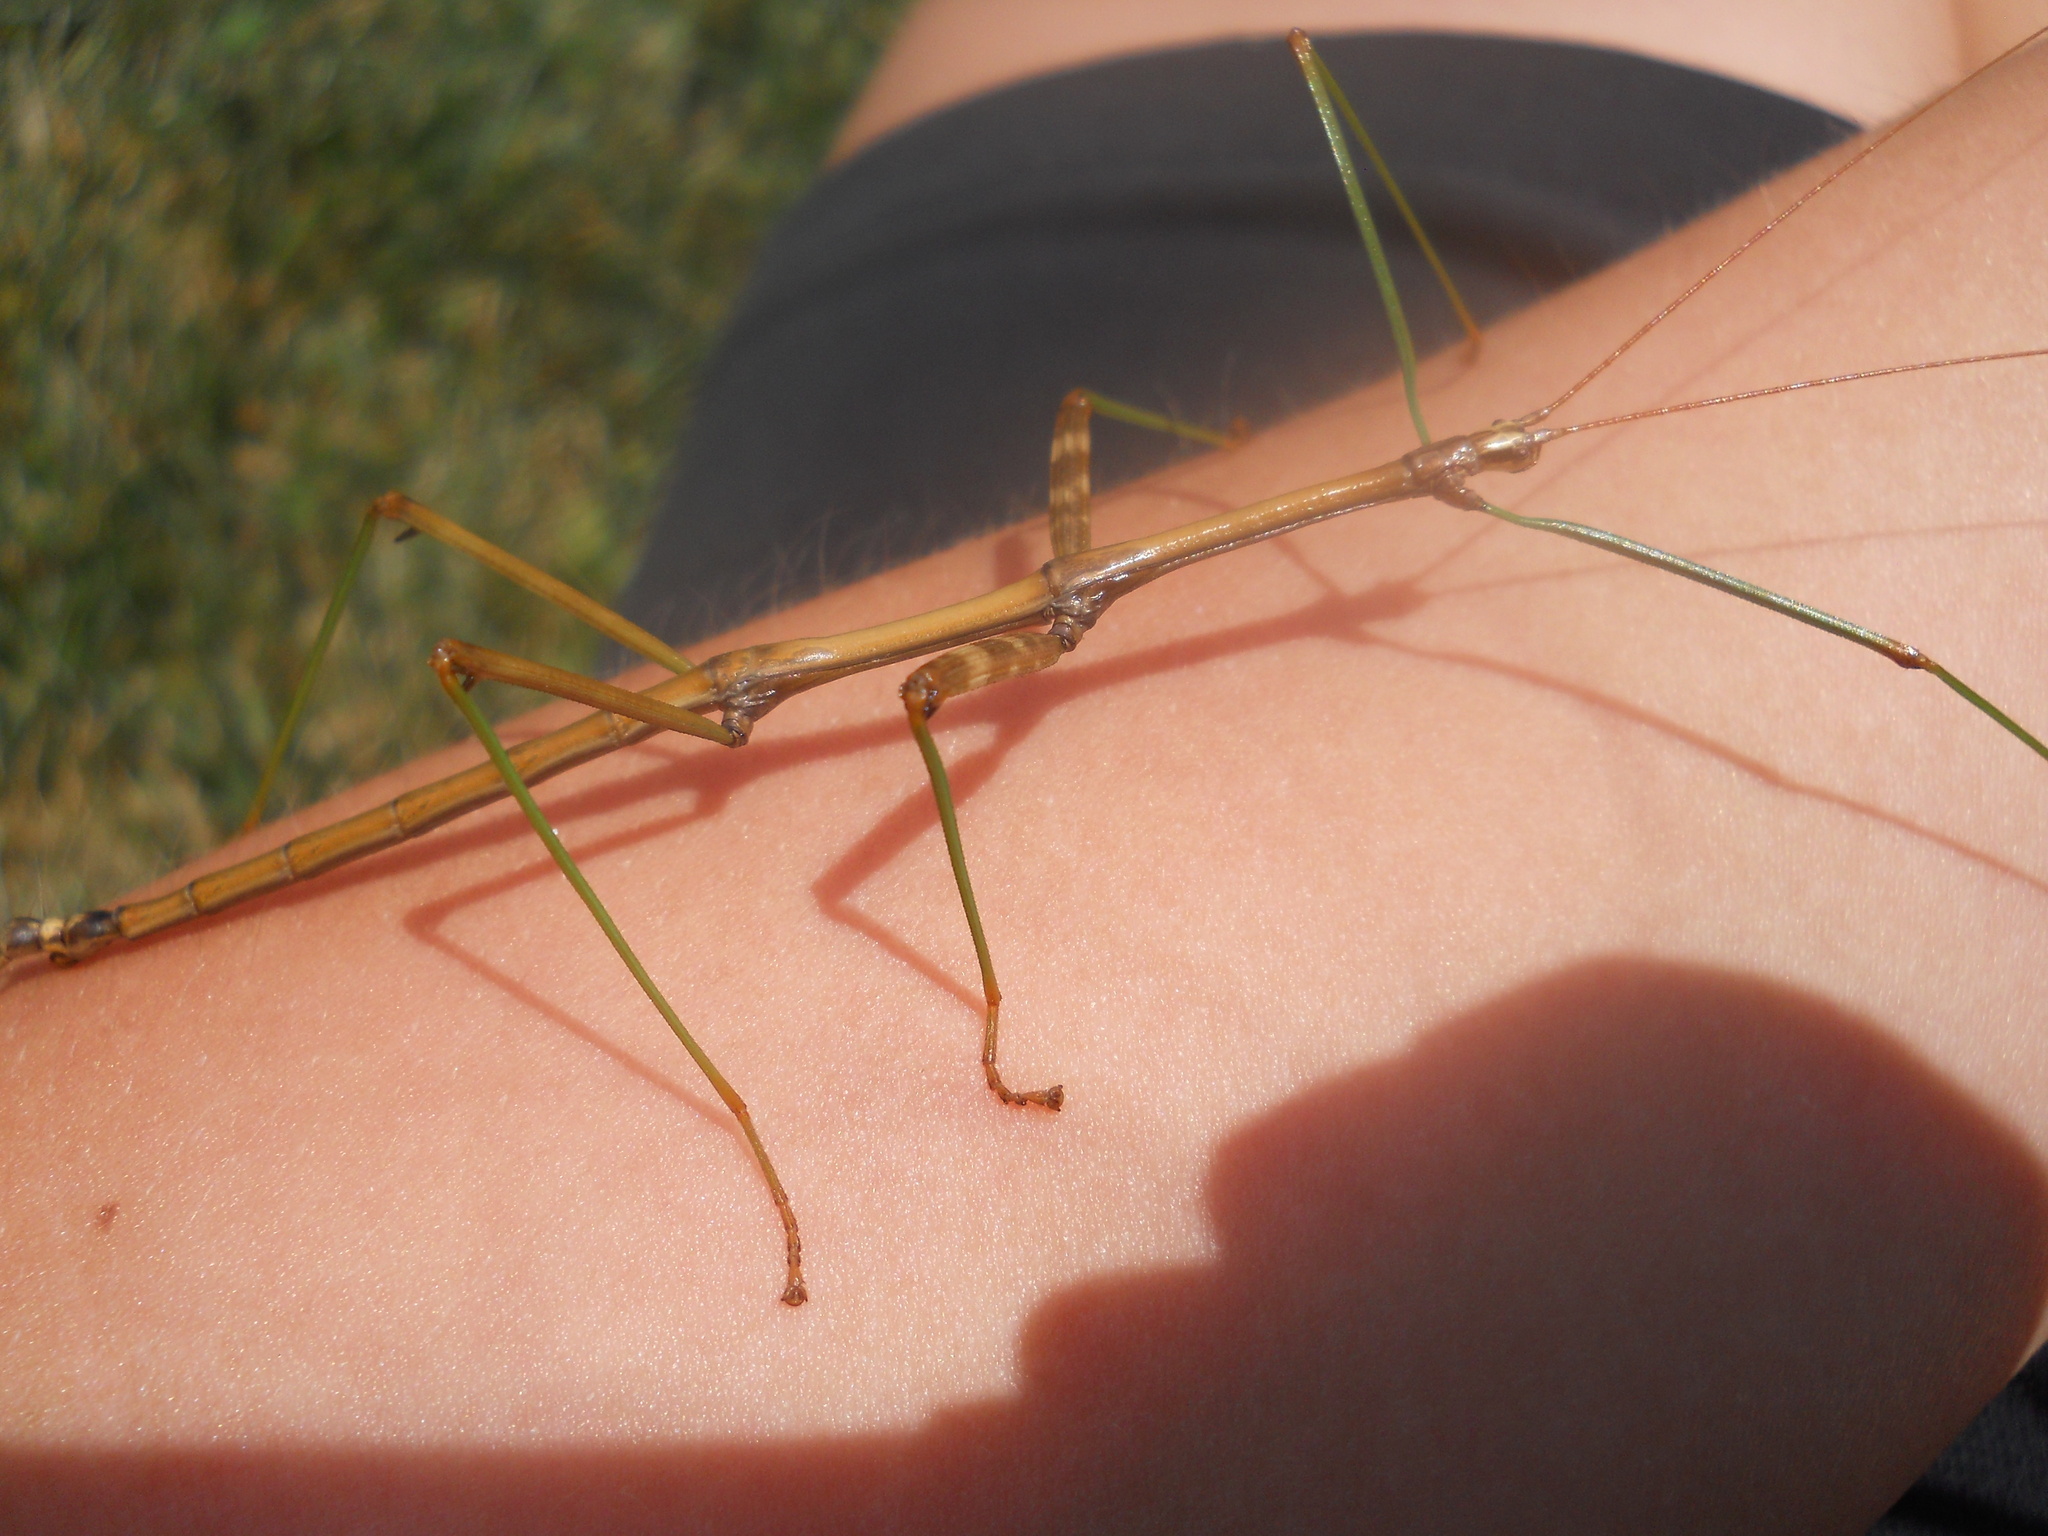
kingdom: Animalia
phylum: Arthropoda
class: Insecta
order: Phasmida
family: Diapheromeridae
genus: Diapheromera
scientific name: Diapheromera femorata
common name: Common american walkingstick
